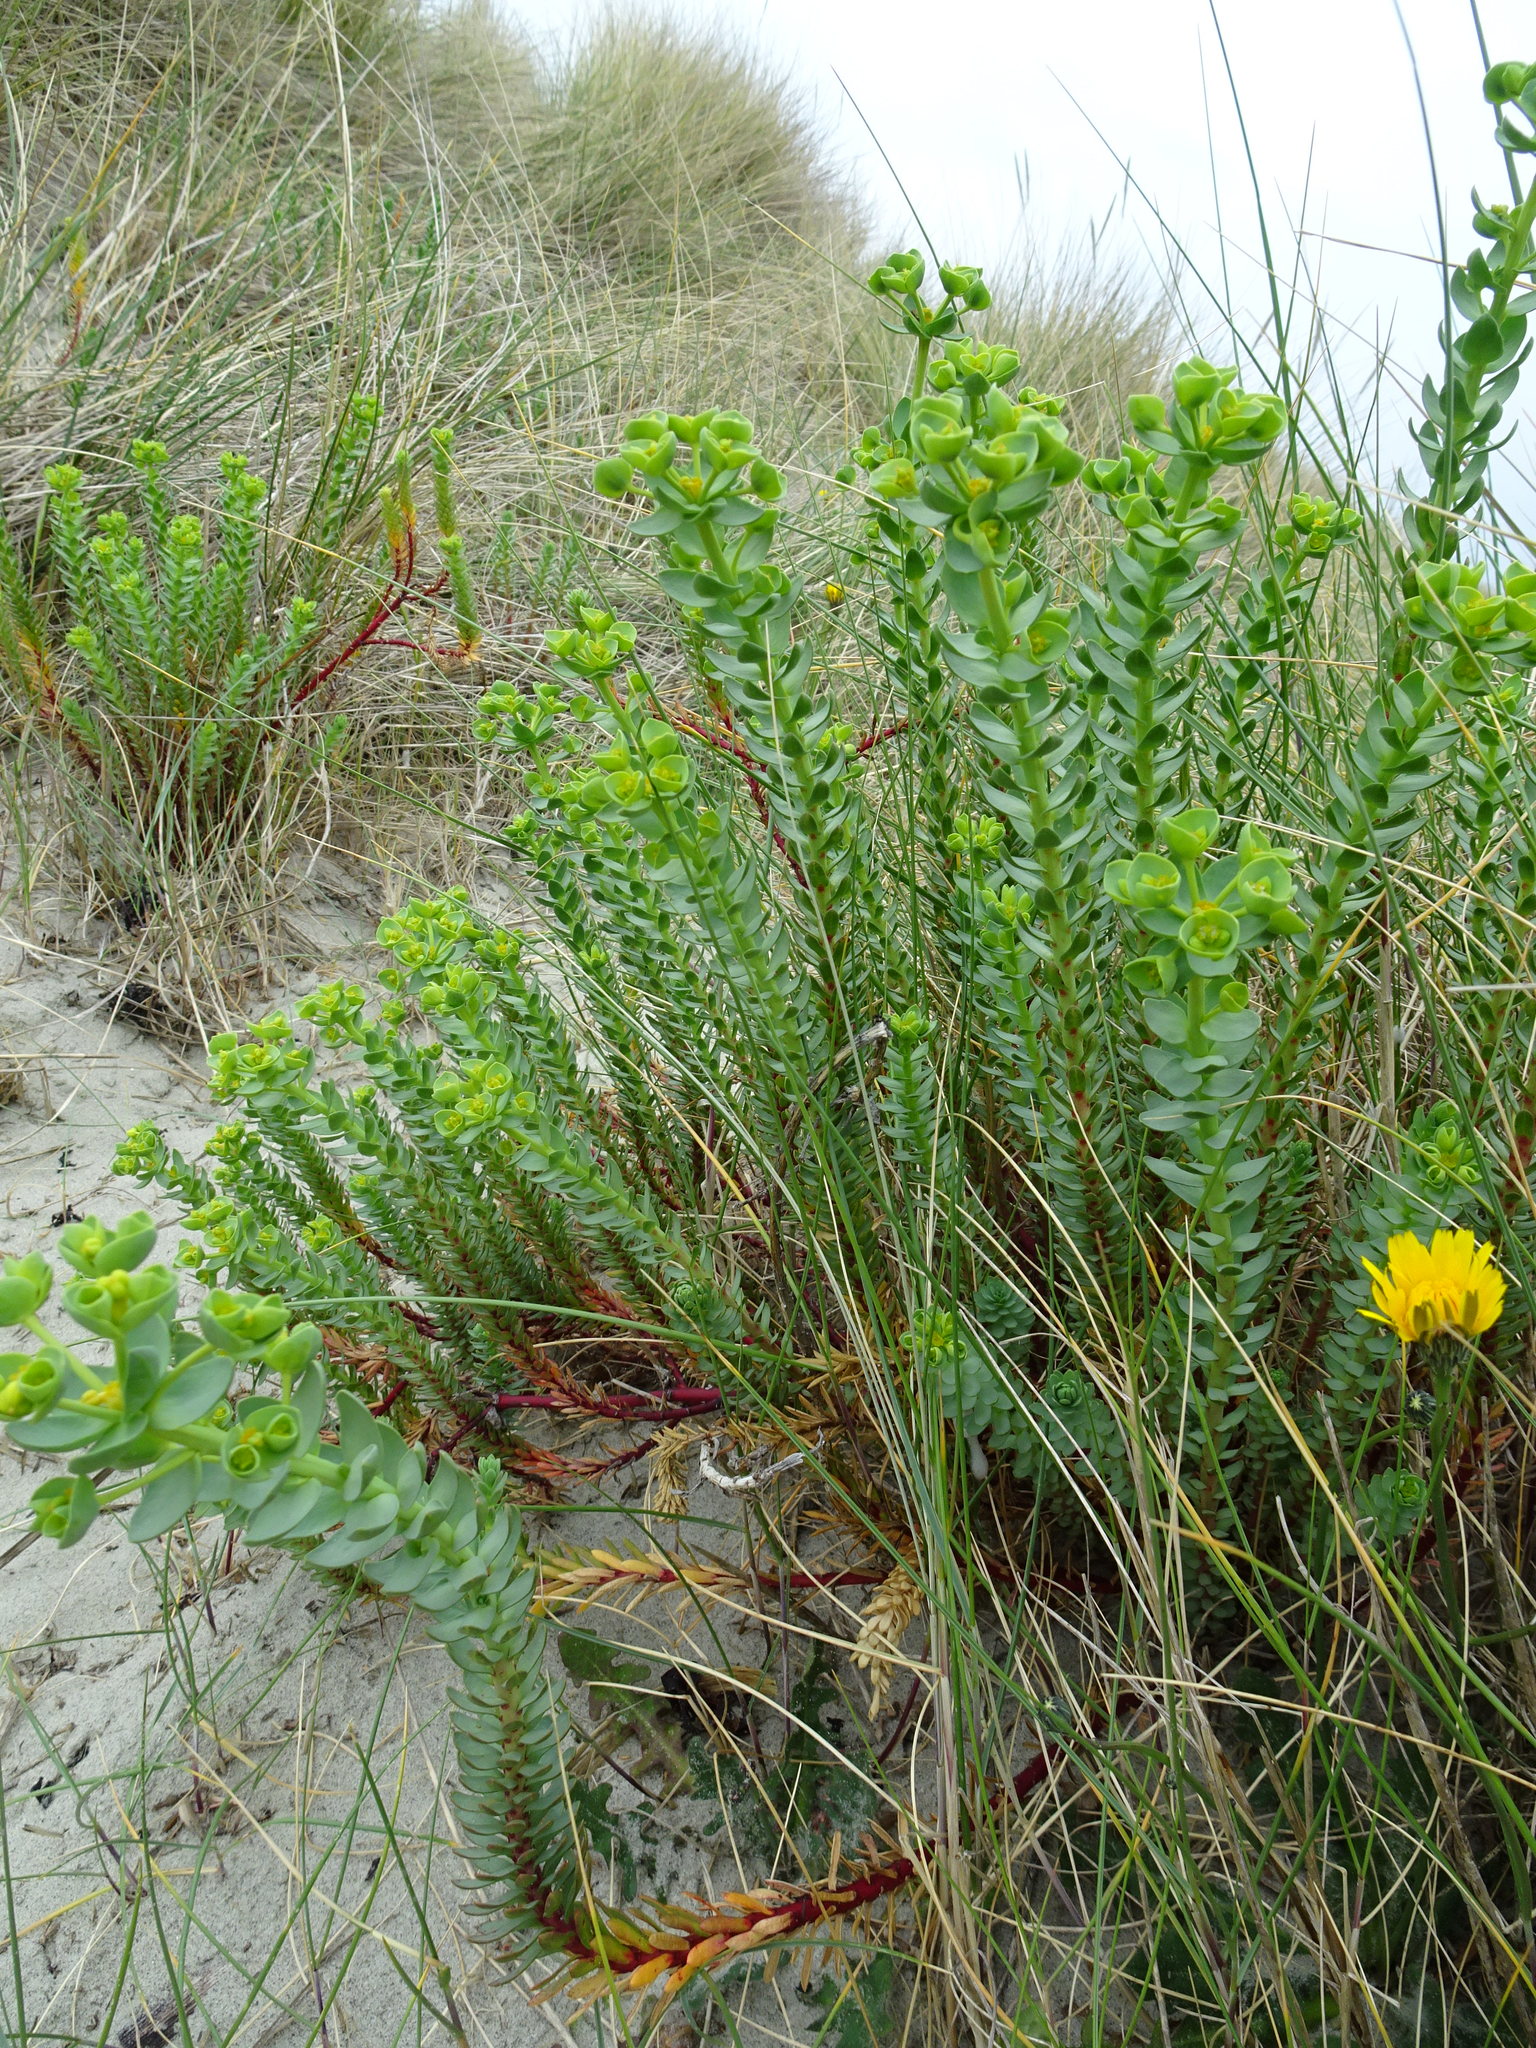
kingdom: Plantae
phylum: Tracheophyta
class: Magnoliopsida
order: Malpighiales
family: Euphorbiaceae
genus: Euphorbia
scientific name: Euphorbia paralias
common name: Sea spurge
